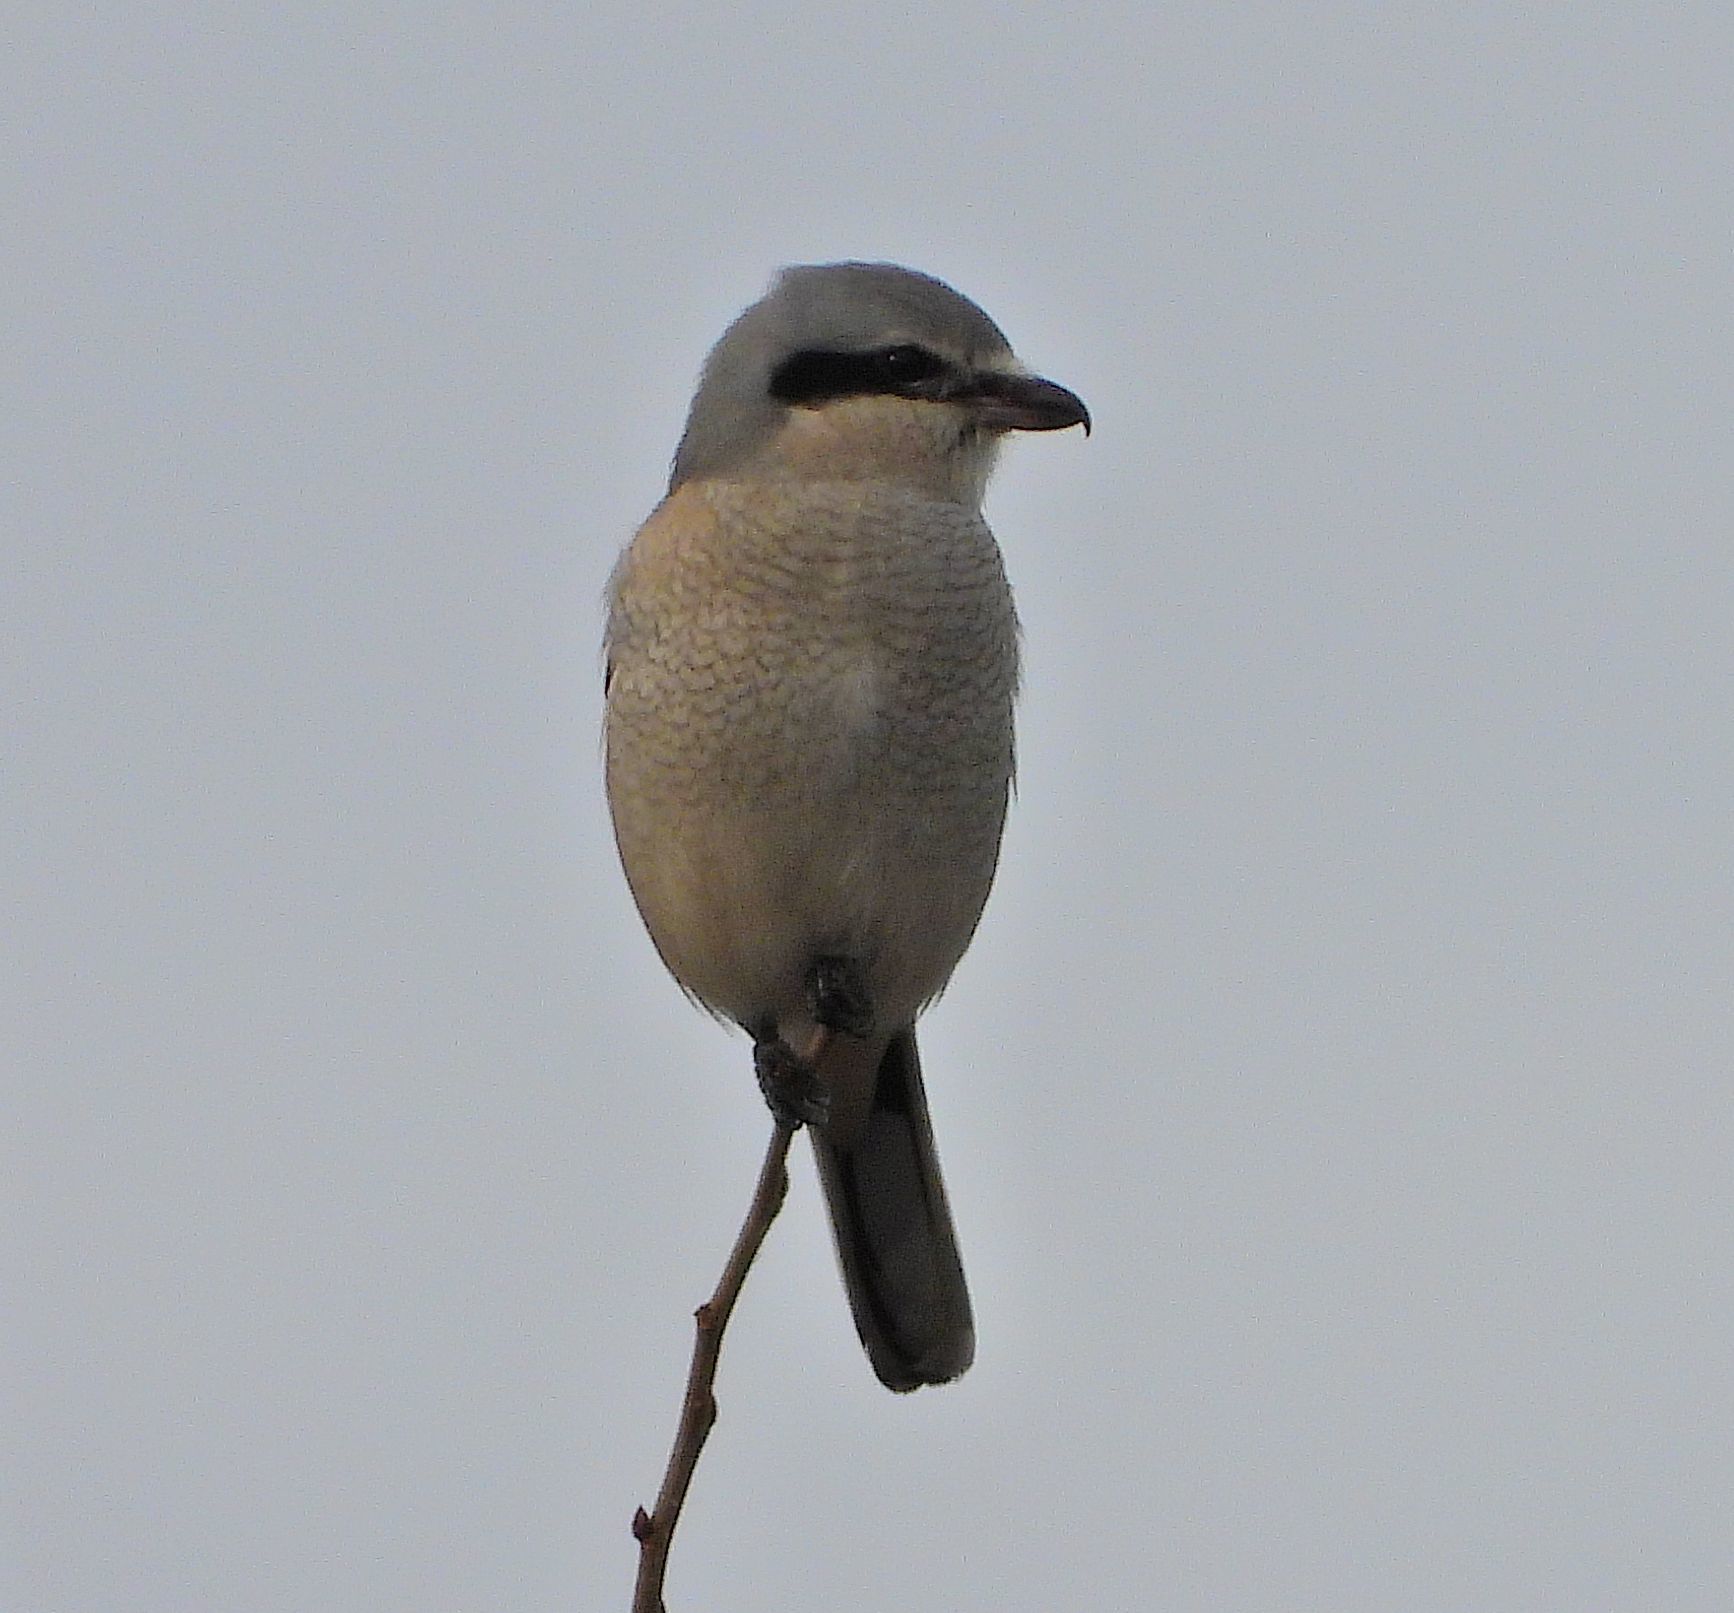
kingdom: Animalia
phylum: Chordata
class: Aves
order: Passeriformes
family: Laniidae
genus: Lanius
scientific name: Lanius borealis
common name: Northern shrike
